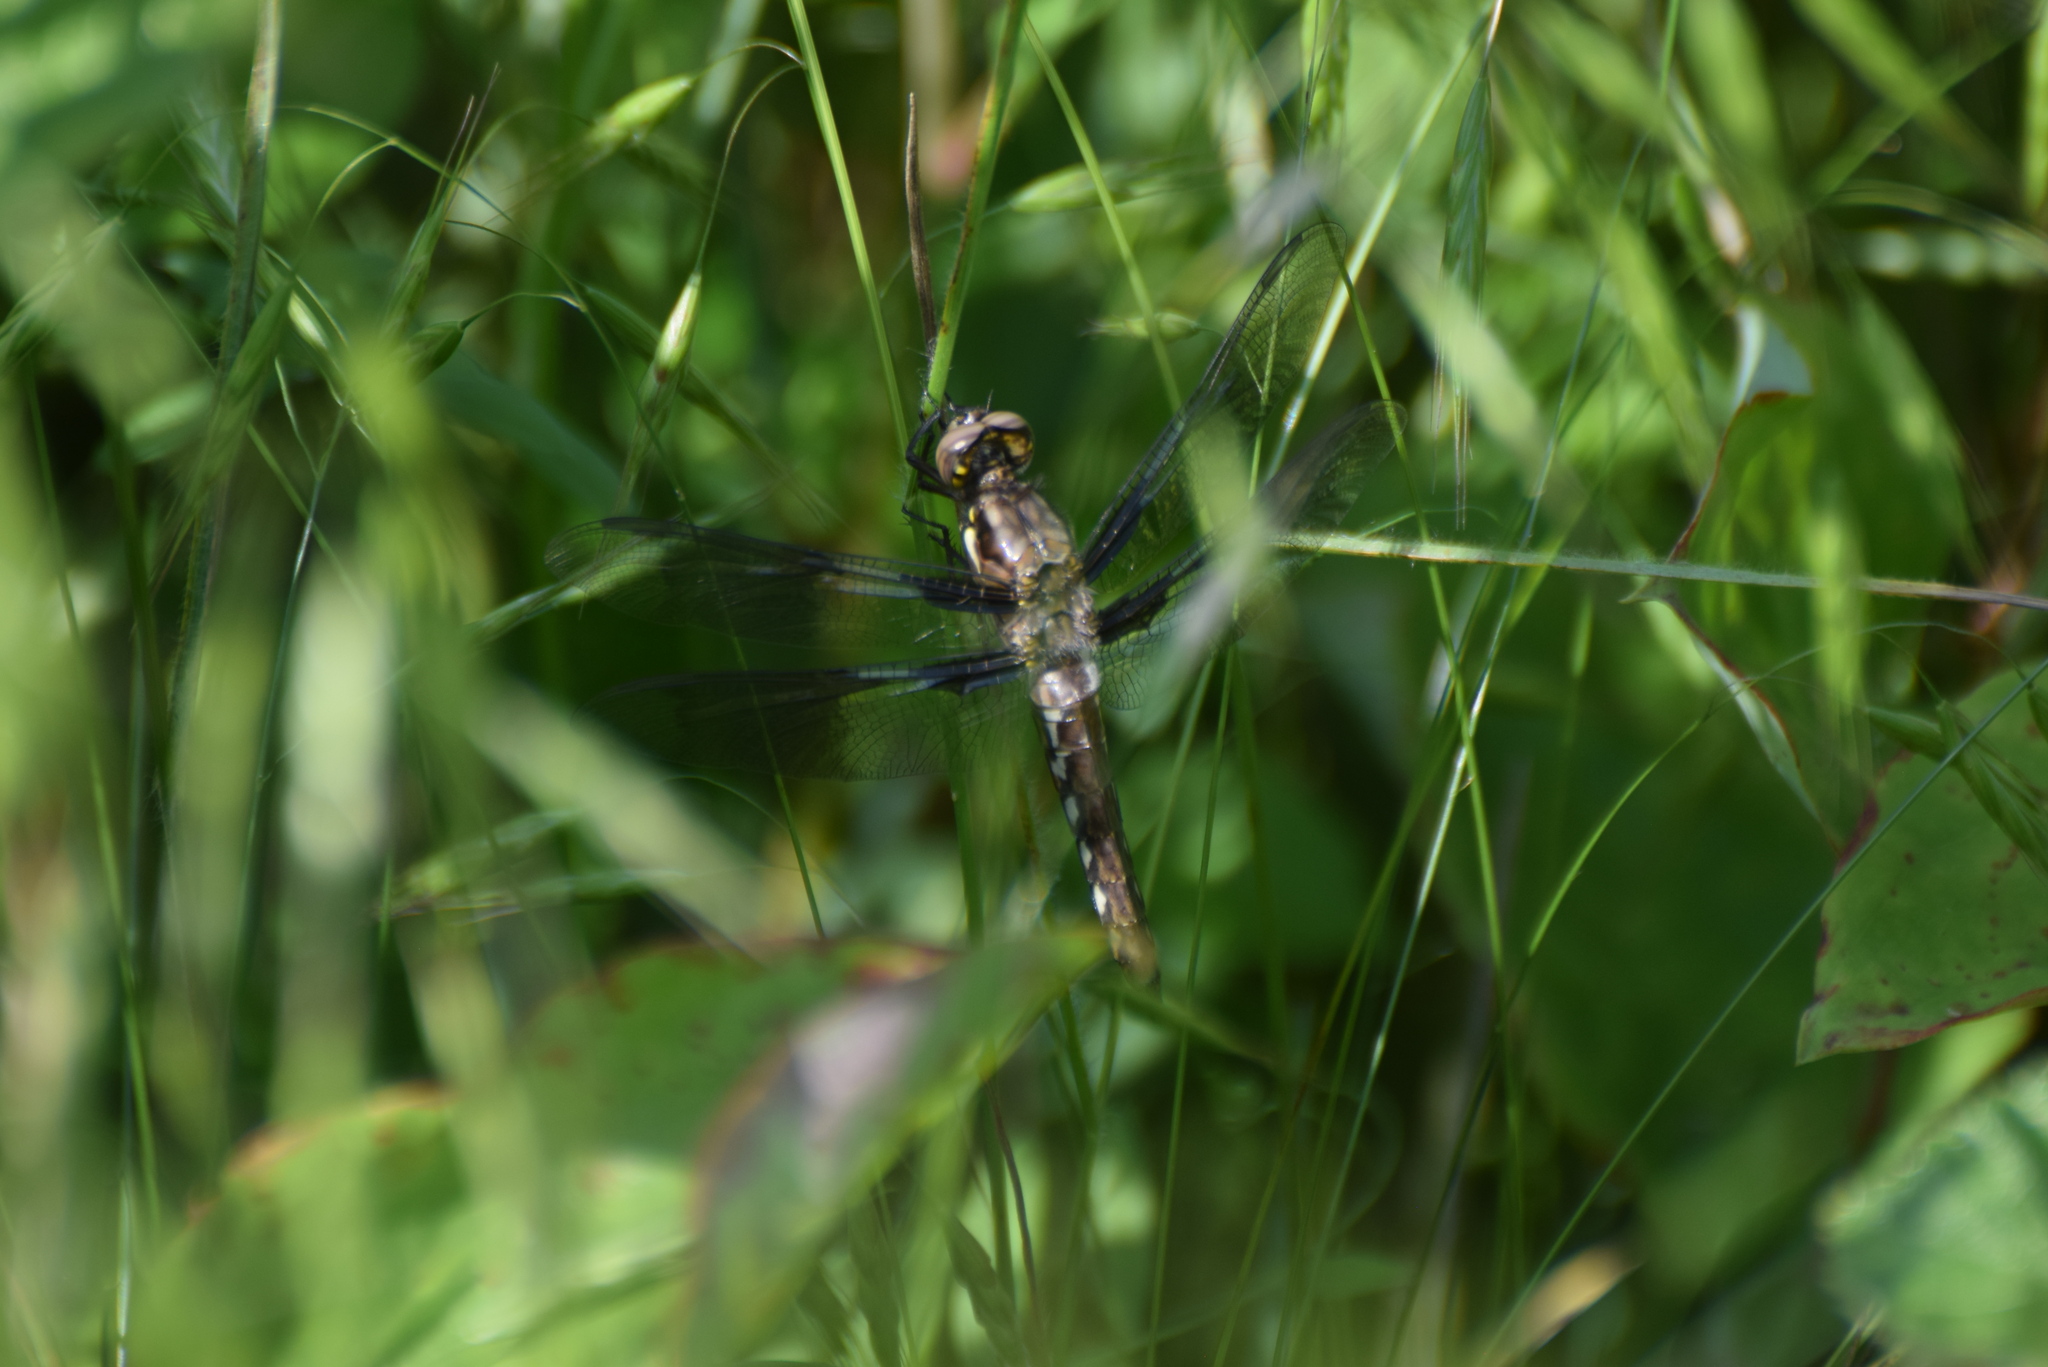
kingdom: Animalia
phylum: Arthropoda
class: Insecta
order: Odonata
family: Libellulidae
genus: Plathemis
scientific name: Plathemis lydia
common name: Common whitetail
